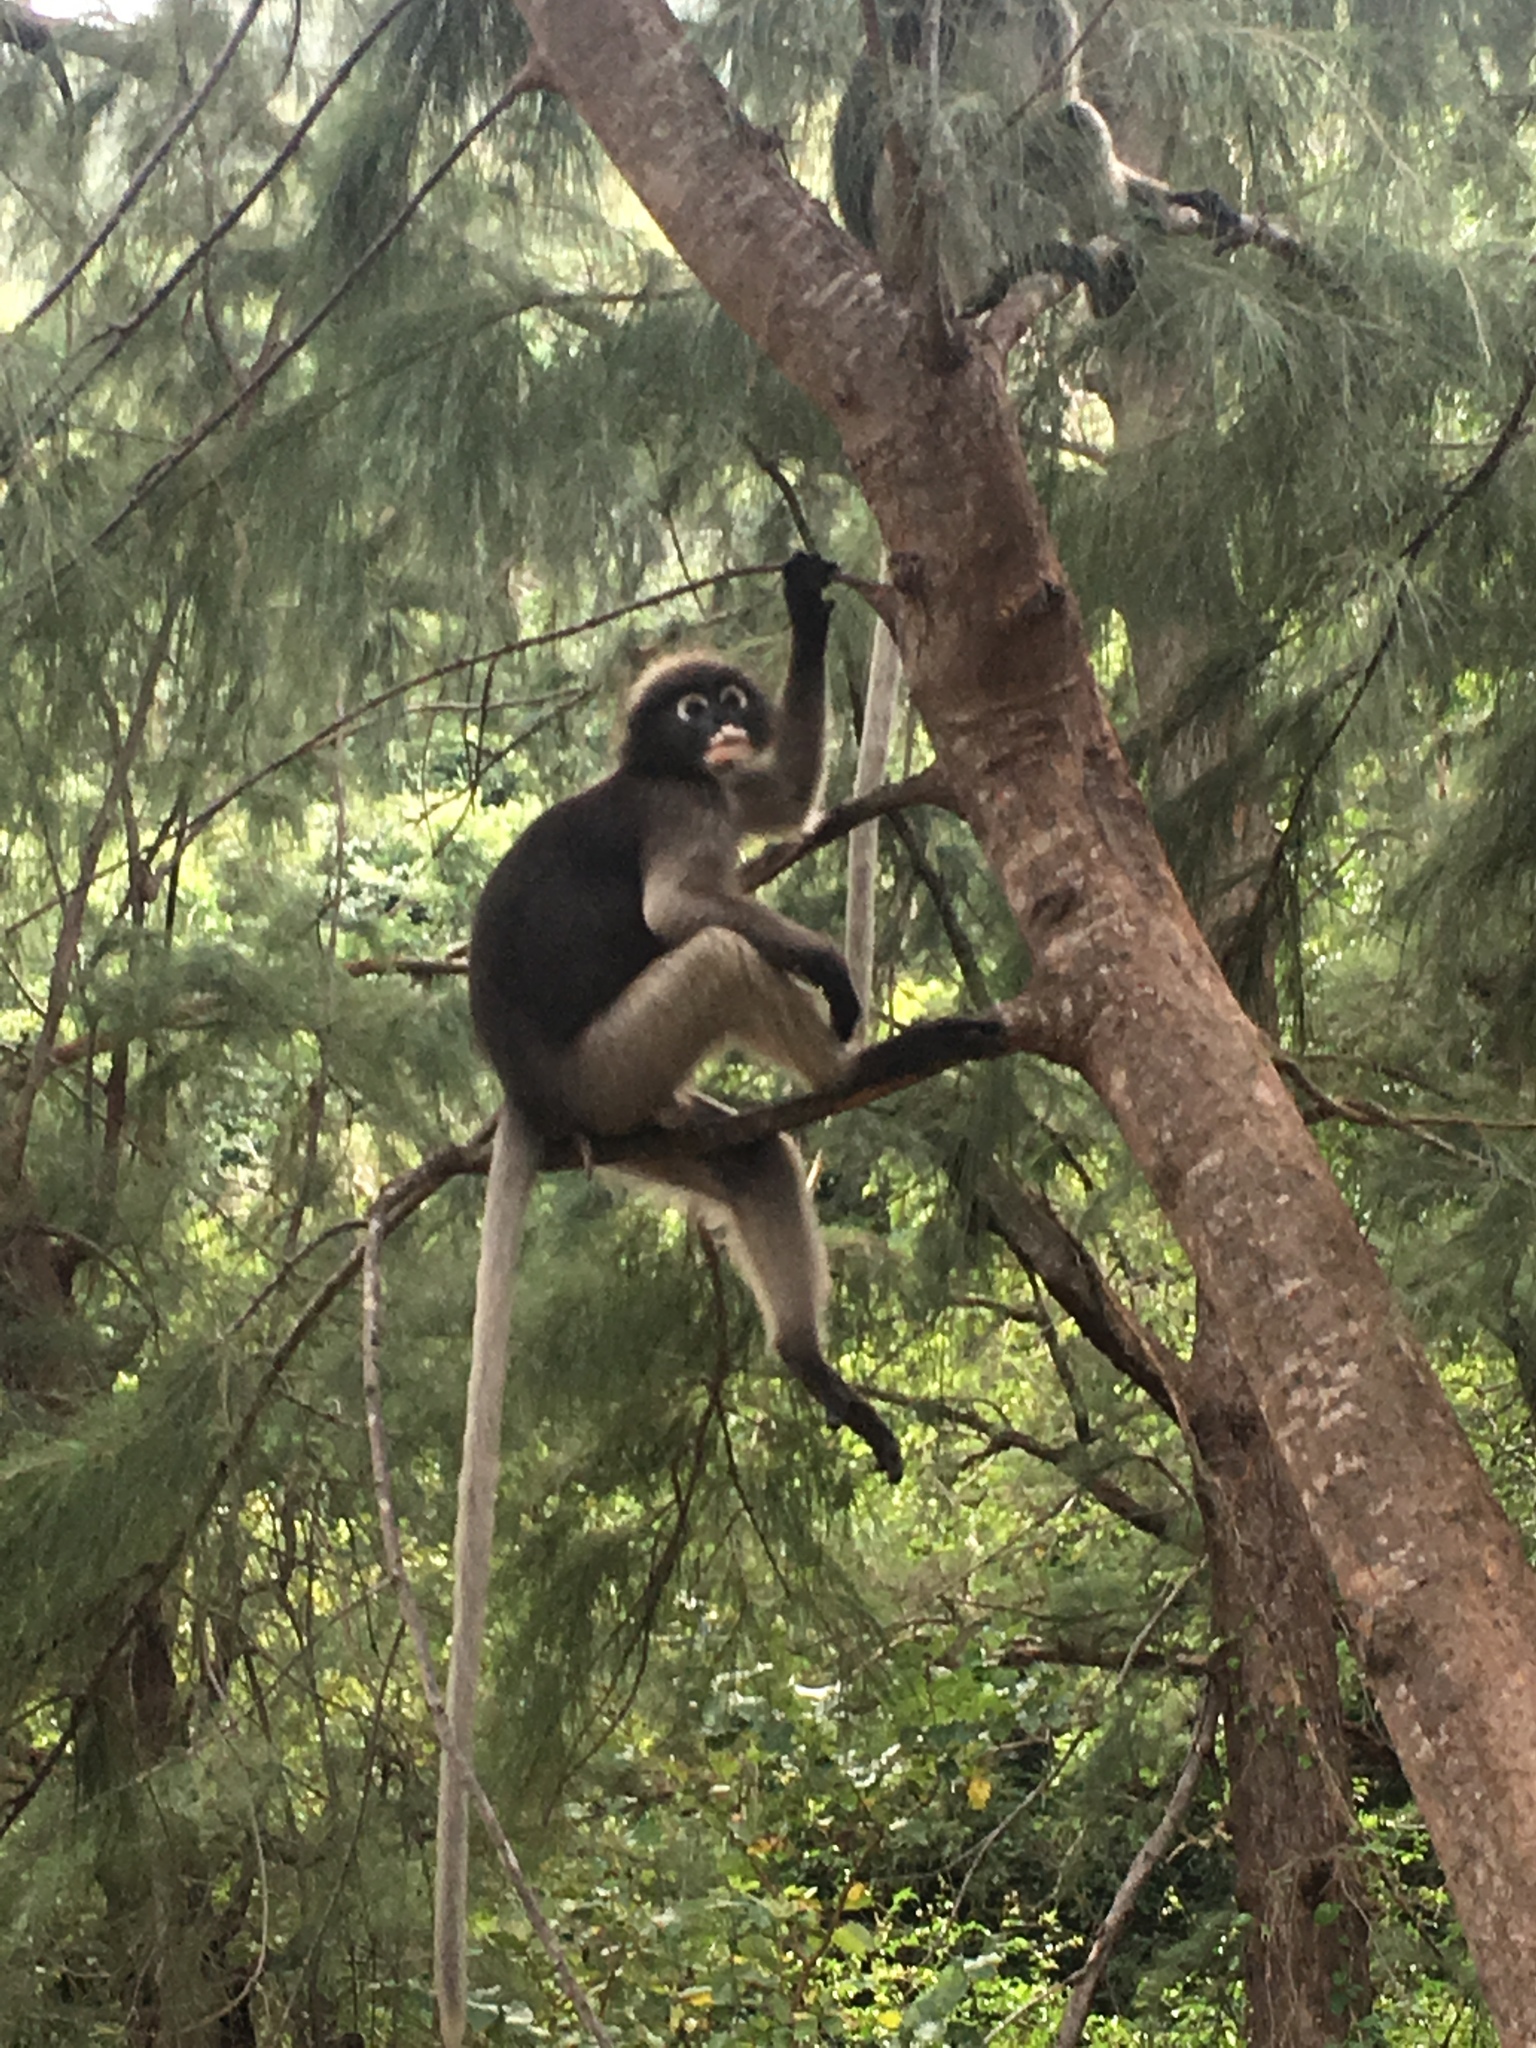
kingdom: Animalia
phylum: Chordata
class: Mammalia
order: Primates
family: Cercopithecidae
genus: Trachypithecus
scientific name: Trachypithecus obscurus
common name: Dusky leaf-monkey
